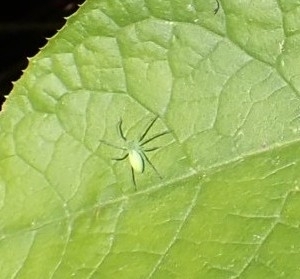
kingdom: Animalia
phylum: Arthropoda
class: Arachnida
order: Araneae
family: Sparassidae
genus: Micrommata
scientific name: Micrommata virescens
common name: Green spider
